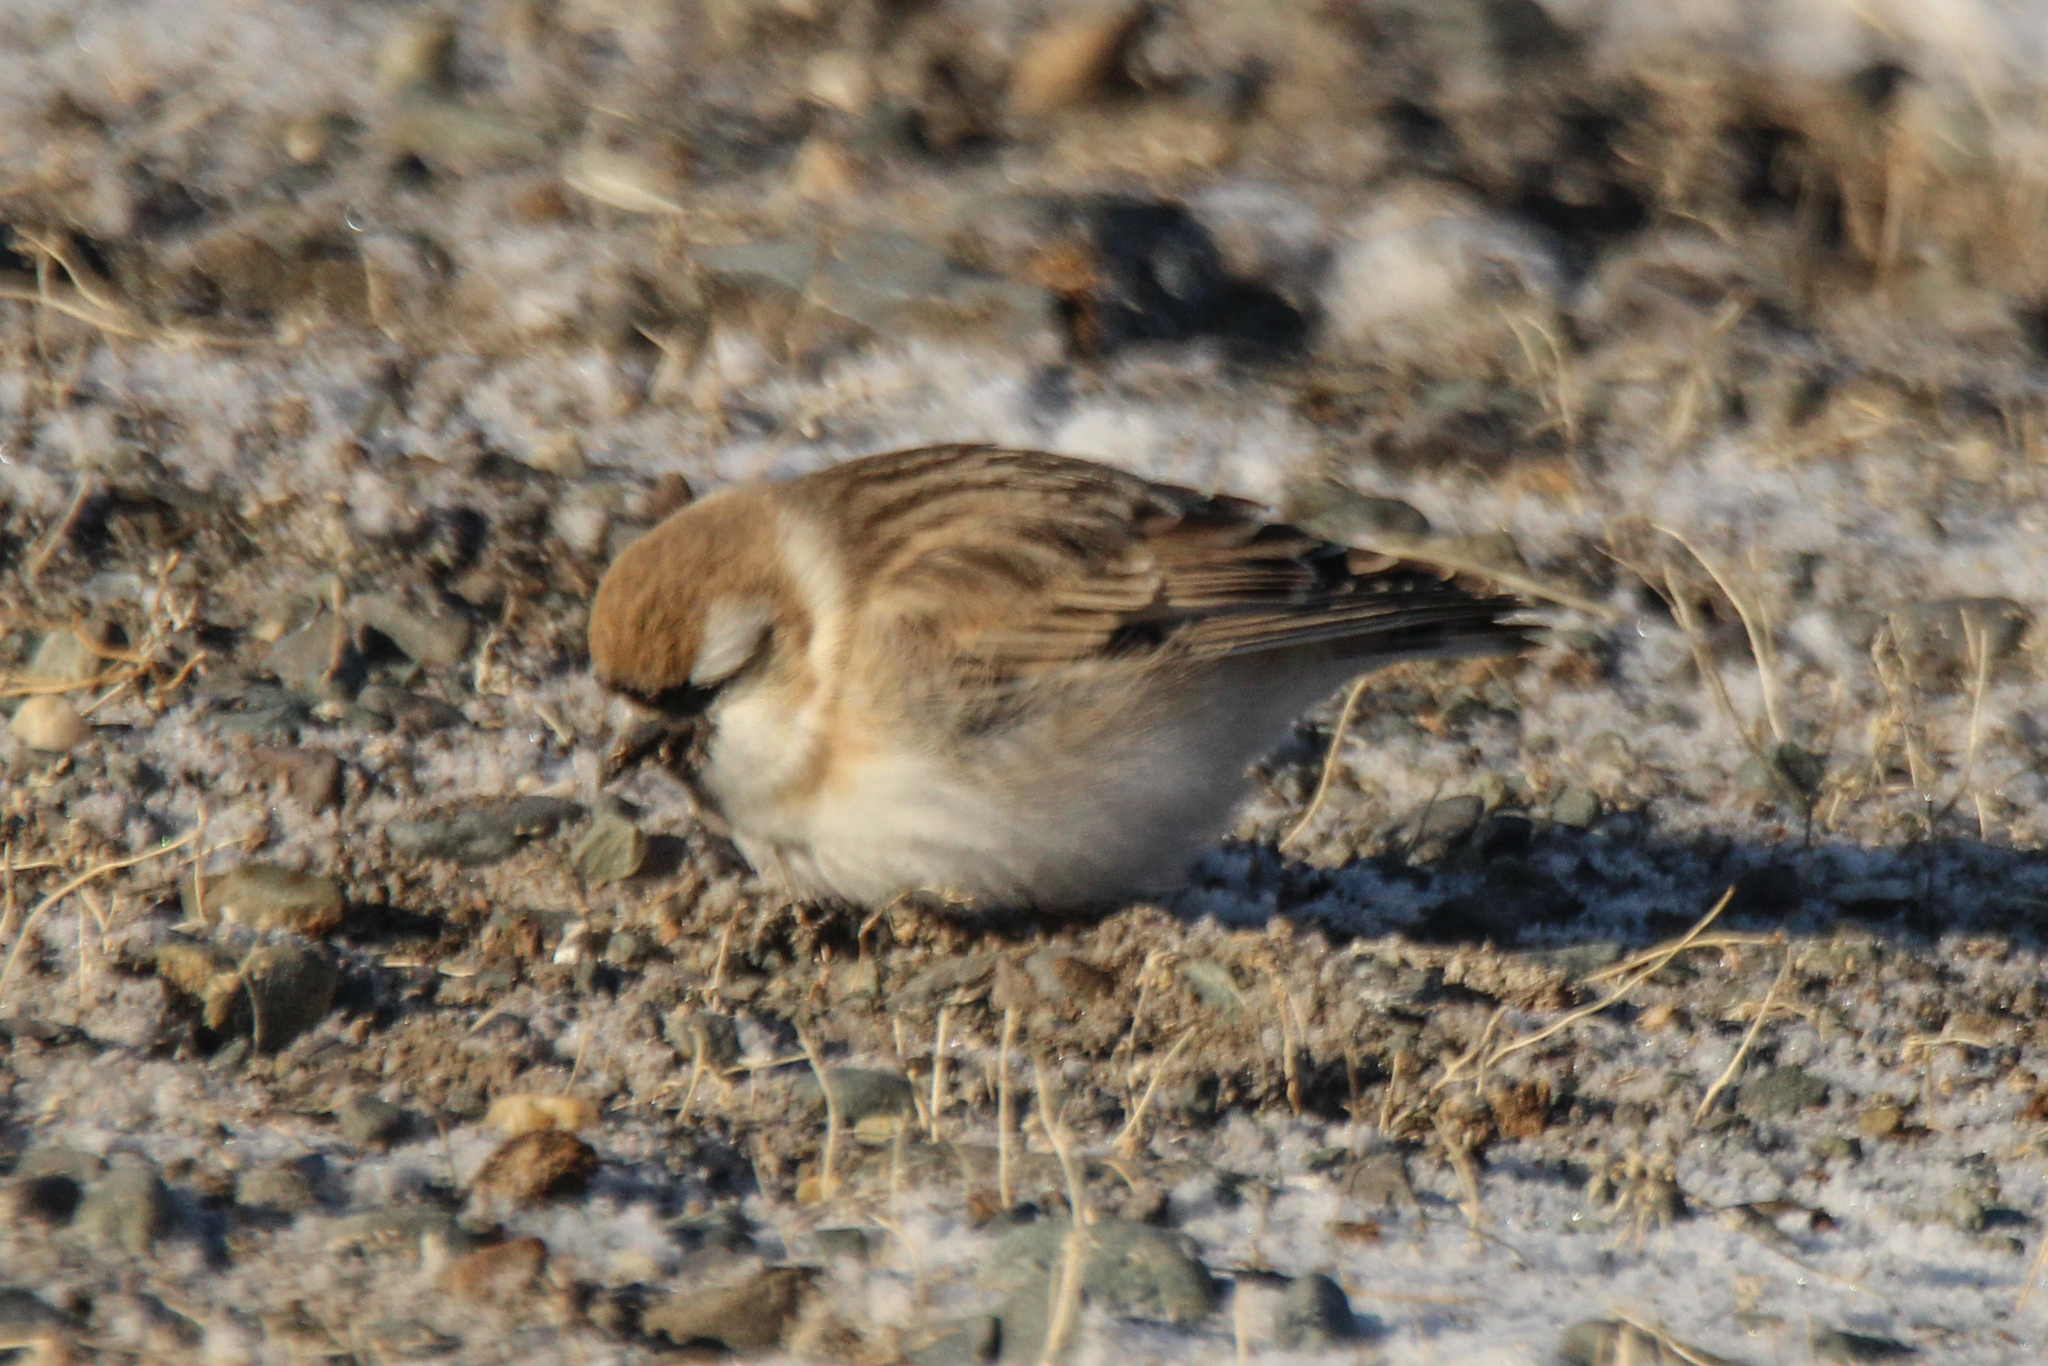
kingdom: Animalia
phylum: Chordata
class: Aves
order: Passeriformes
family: Passeridae
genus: Pyrgilauda
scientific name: Pyrgilauda davidiana
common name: Pere david's snowfinch
